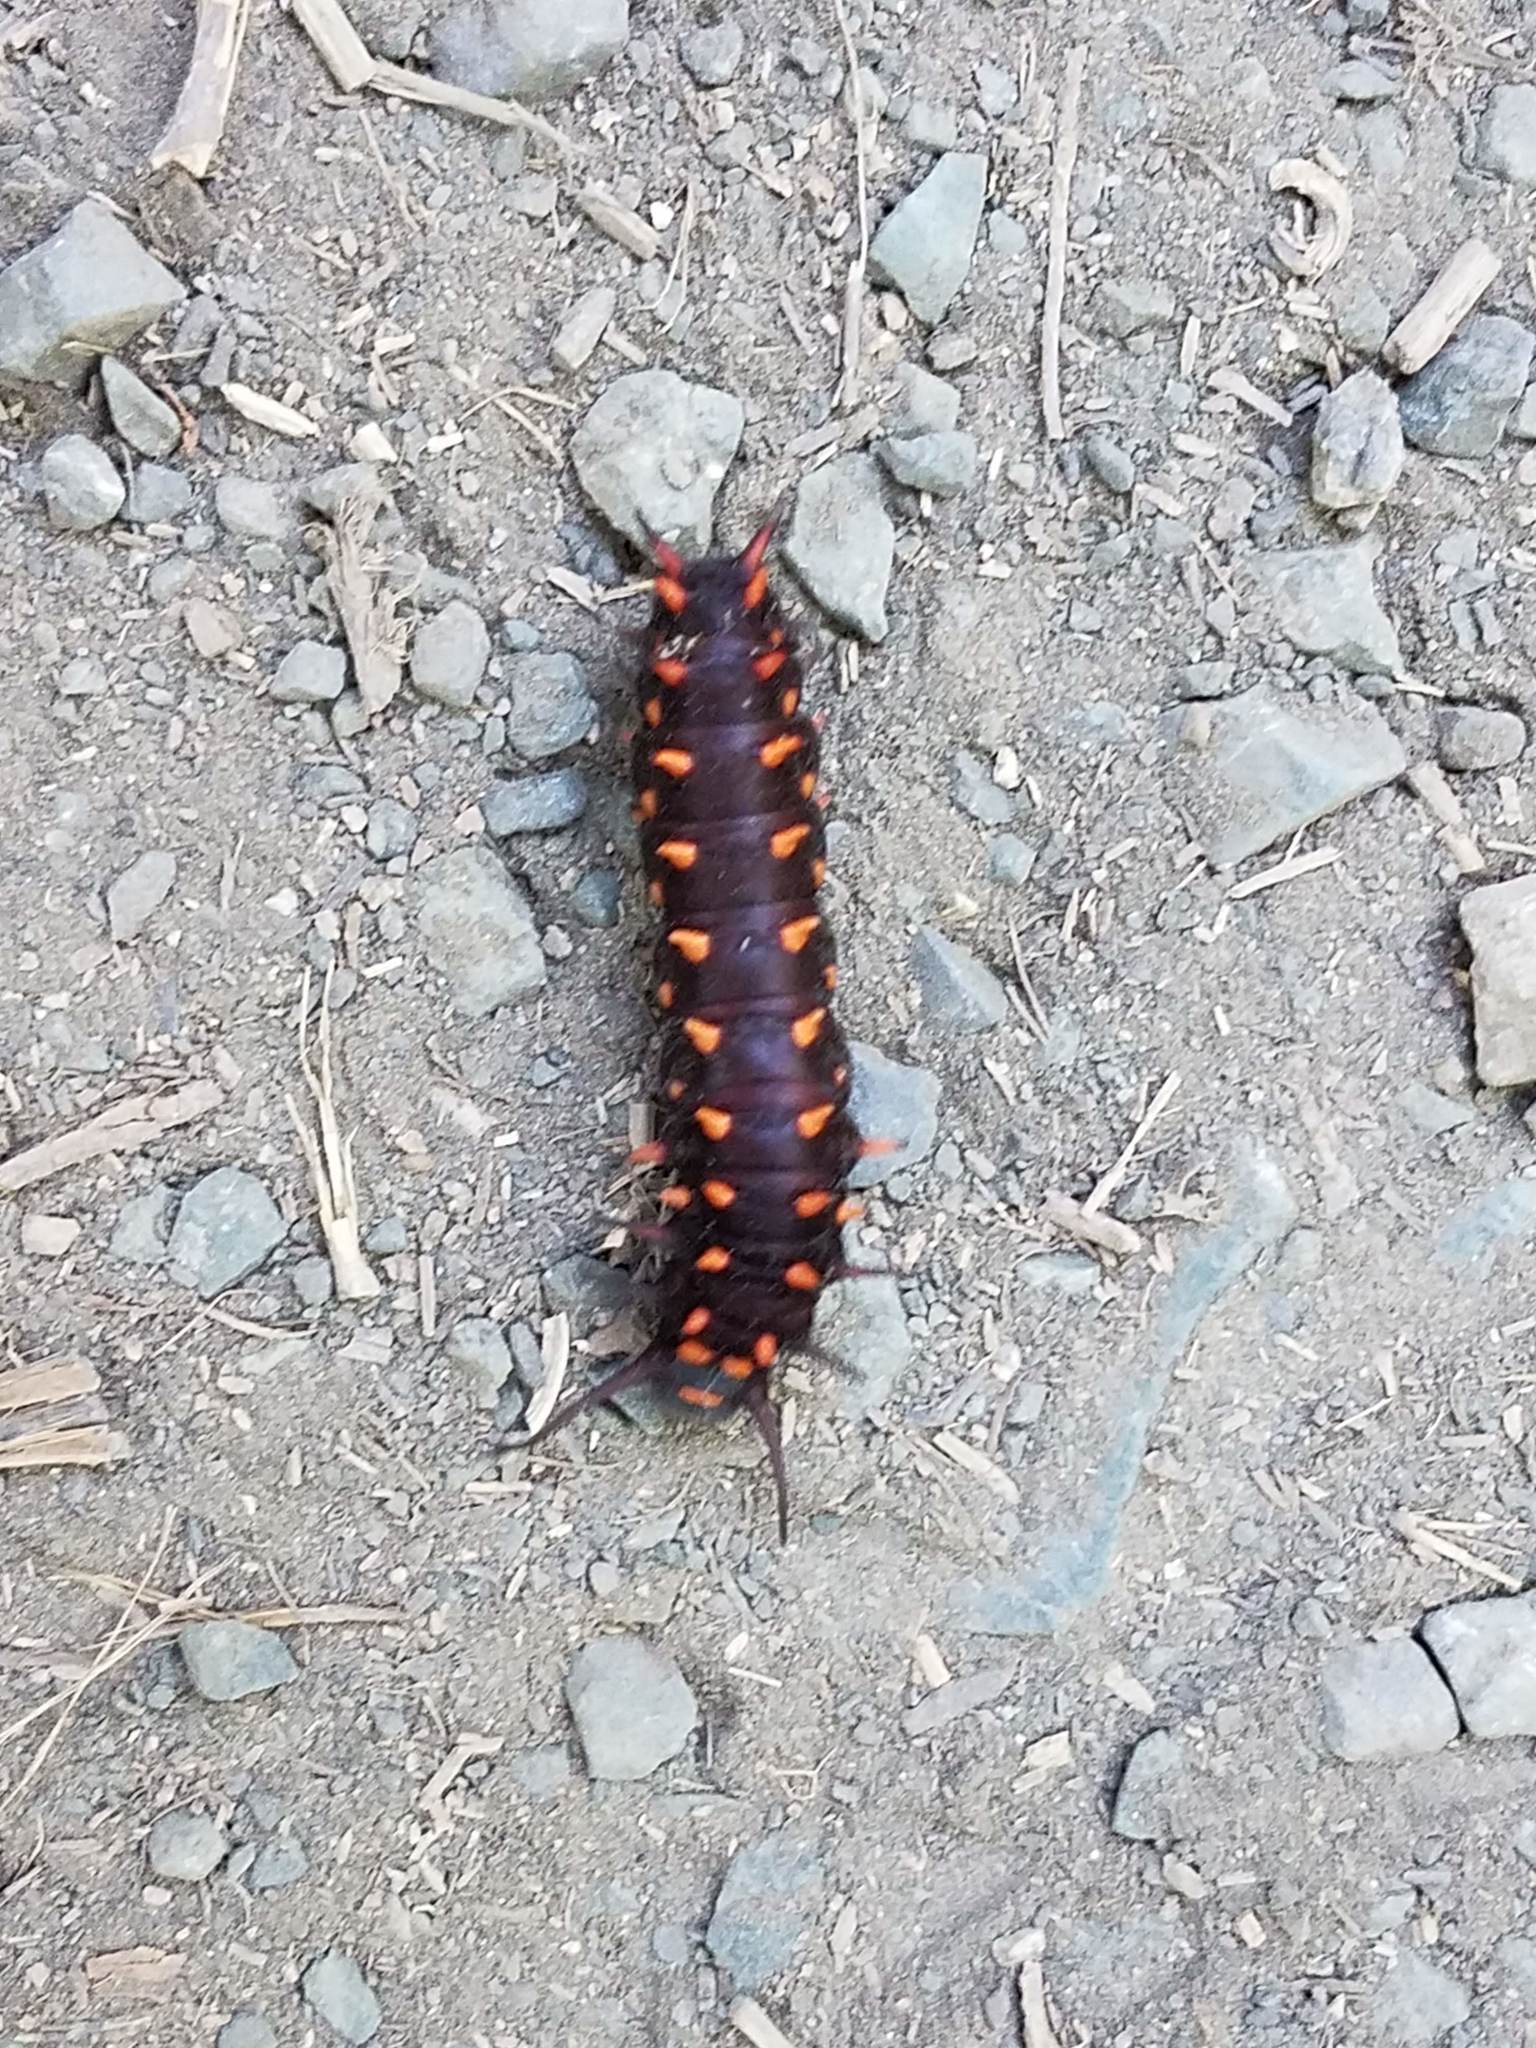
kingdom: Animalia
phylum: Arthropoda
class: Insecta
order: Lepidoptera
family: Papilionidae
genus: Battus
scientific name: Battus philenor
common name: Pipevine swallowtail
